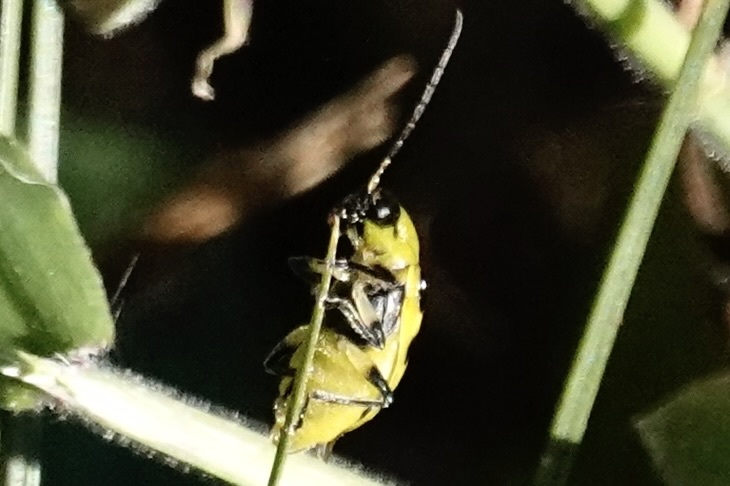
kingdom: Animalia
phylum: Arthropoda
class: Insecta
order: Coleoptera
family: Chrysomelidae
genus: Diabrotica
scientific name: Diabrotica undecimpunctata
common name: Spotted cucumber beetle
